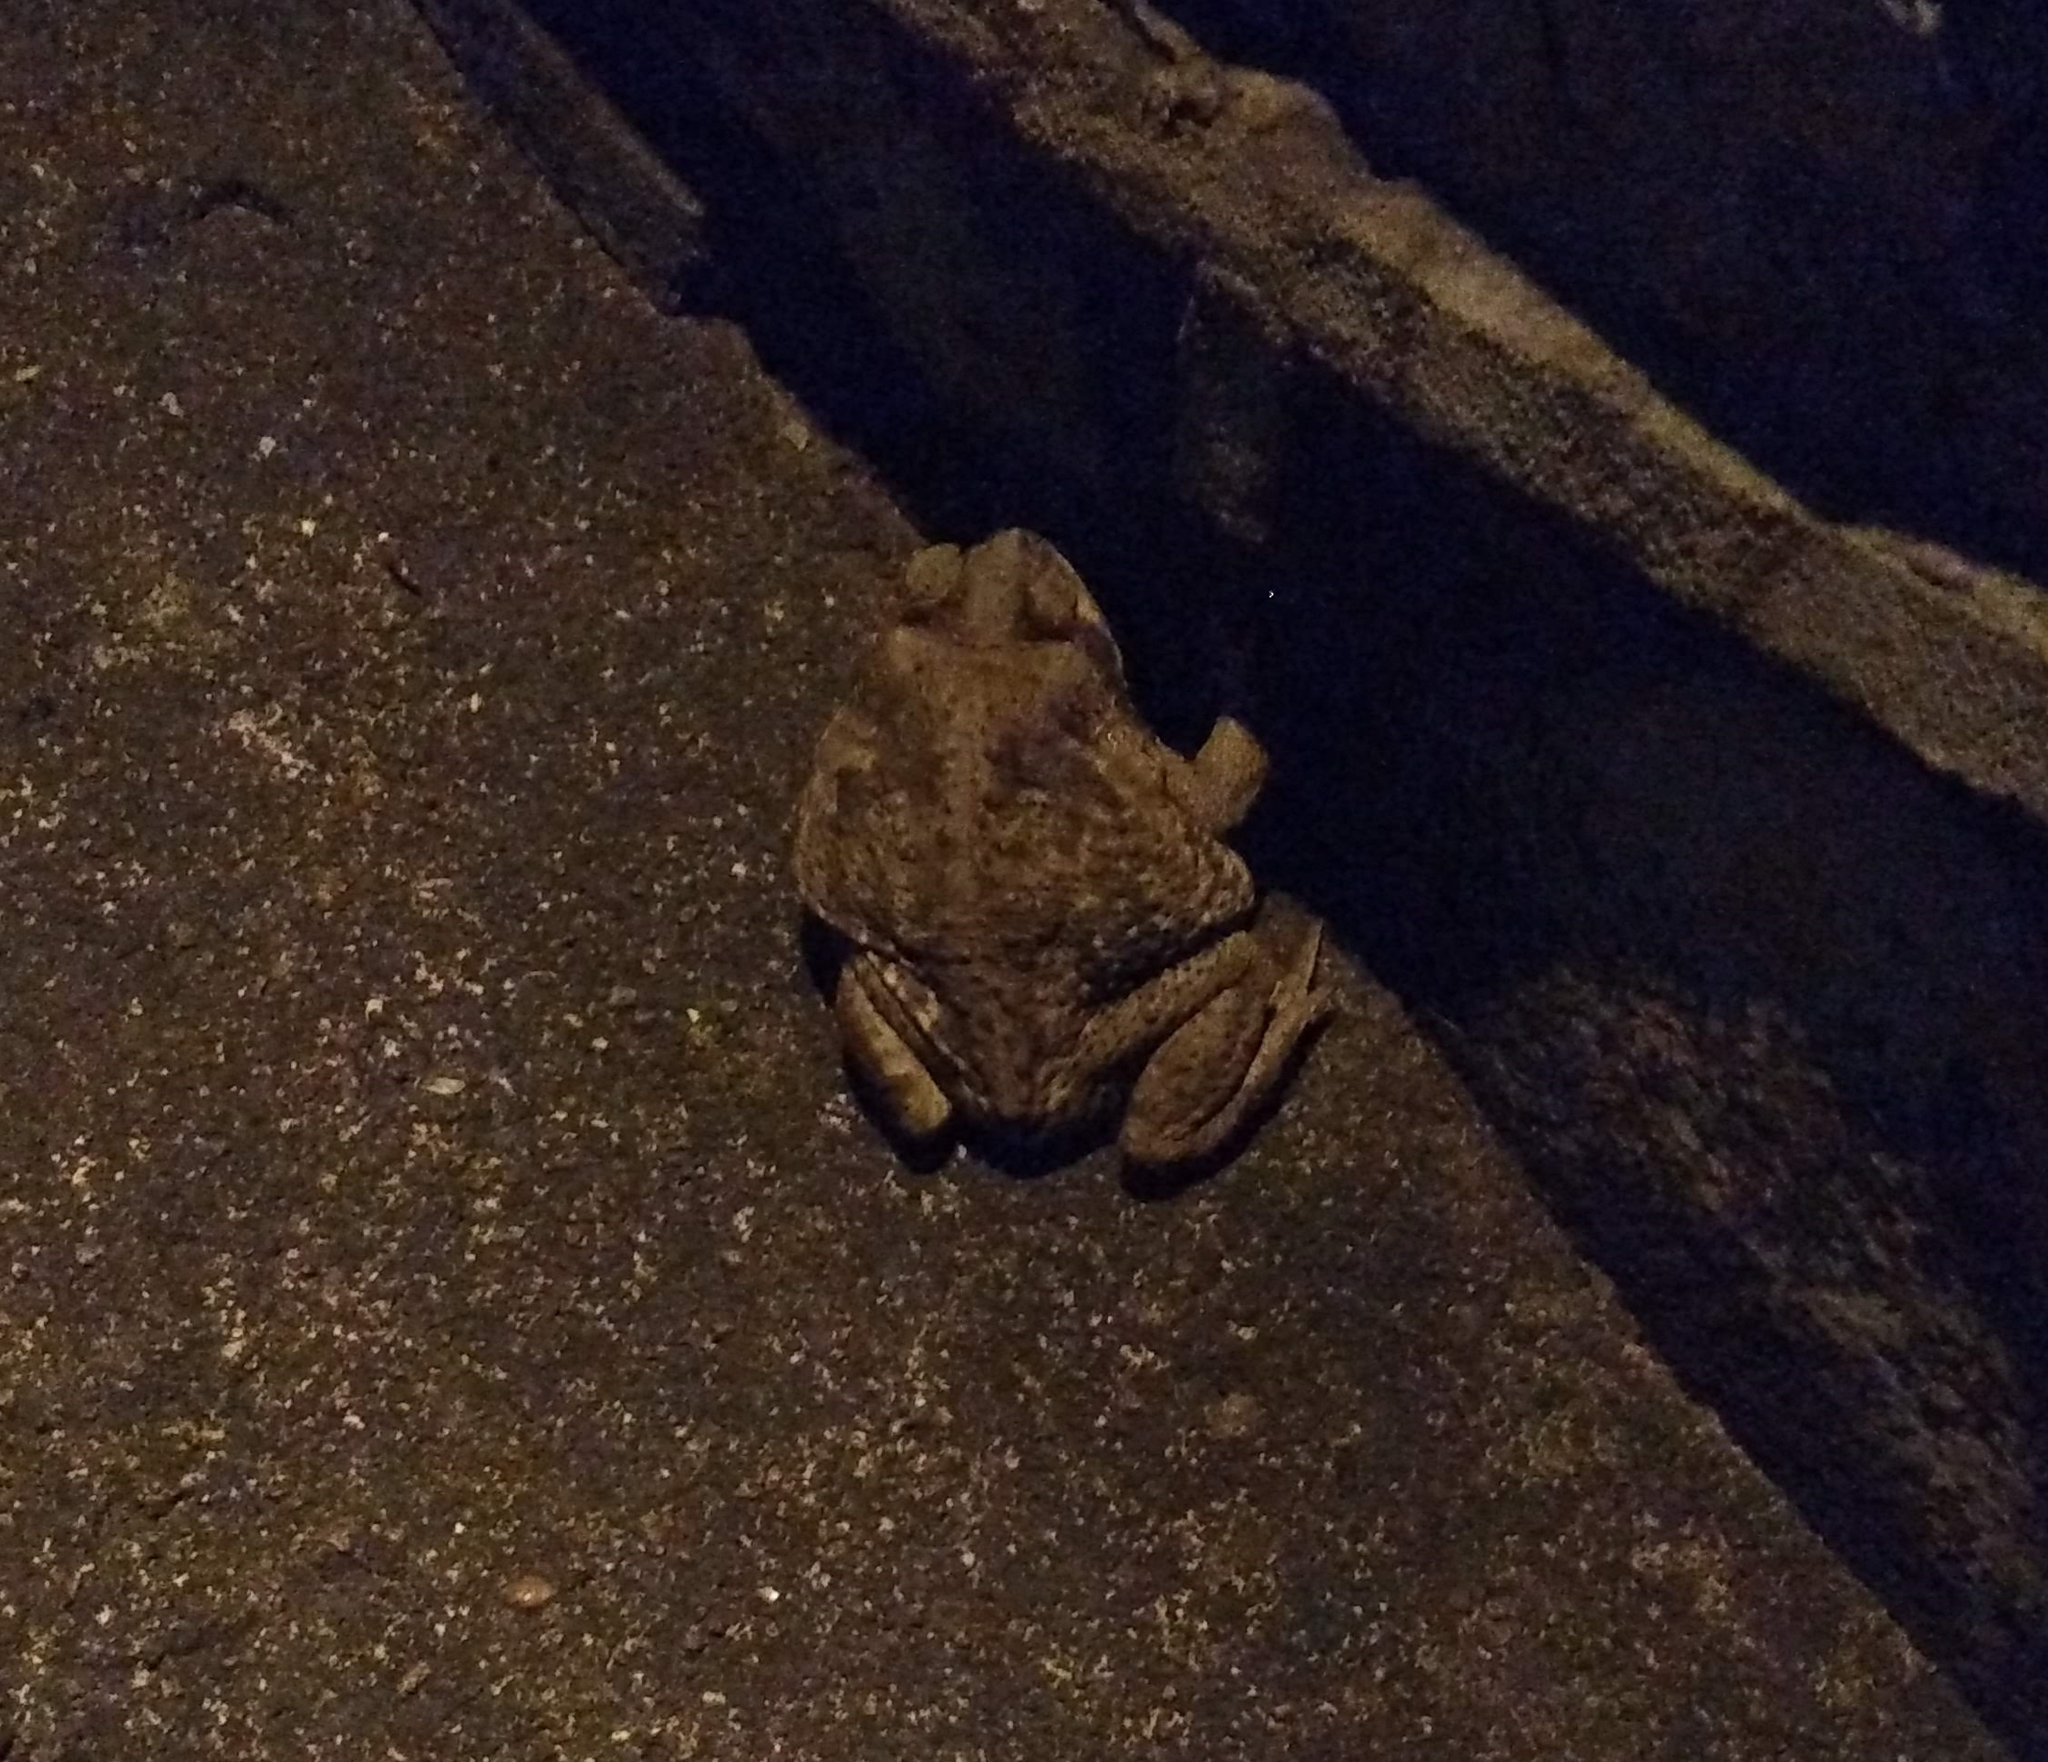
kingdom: Animalia
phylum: Chordata
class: Amphibia
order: Anura
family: Bufonidae
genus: Rhinella
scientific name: Rhinella diptycha
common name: Cope's toad
